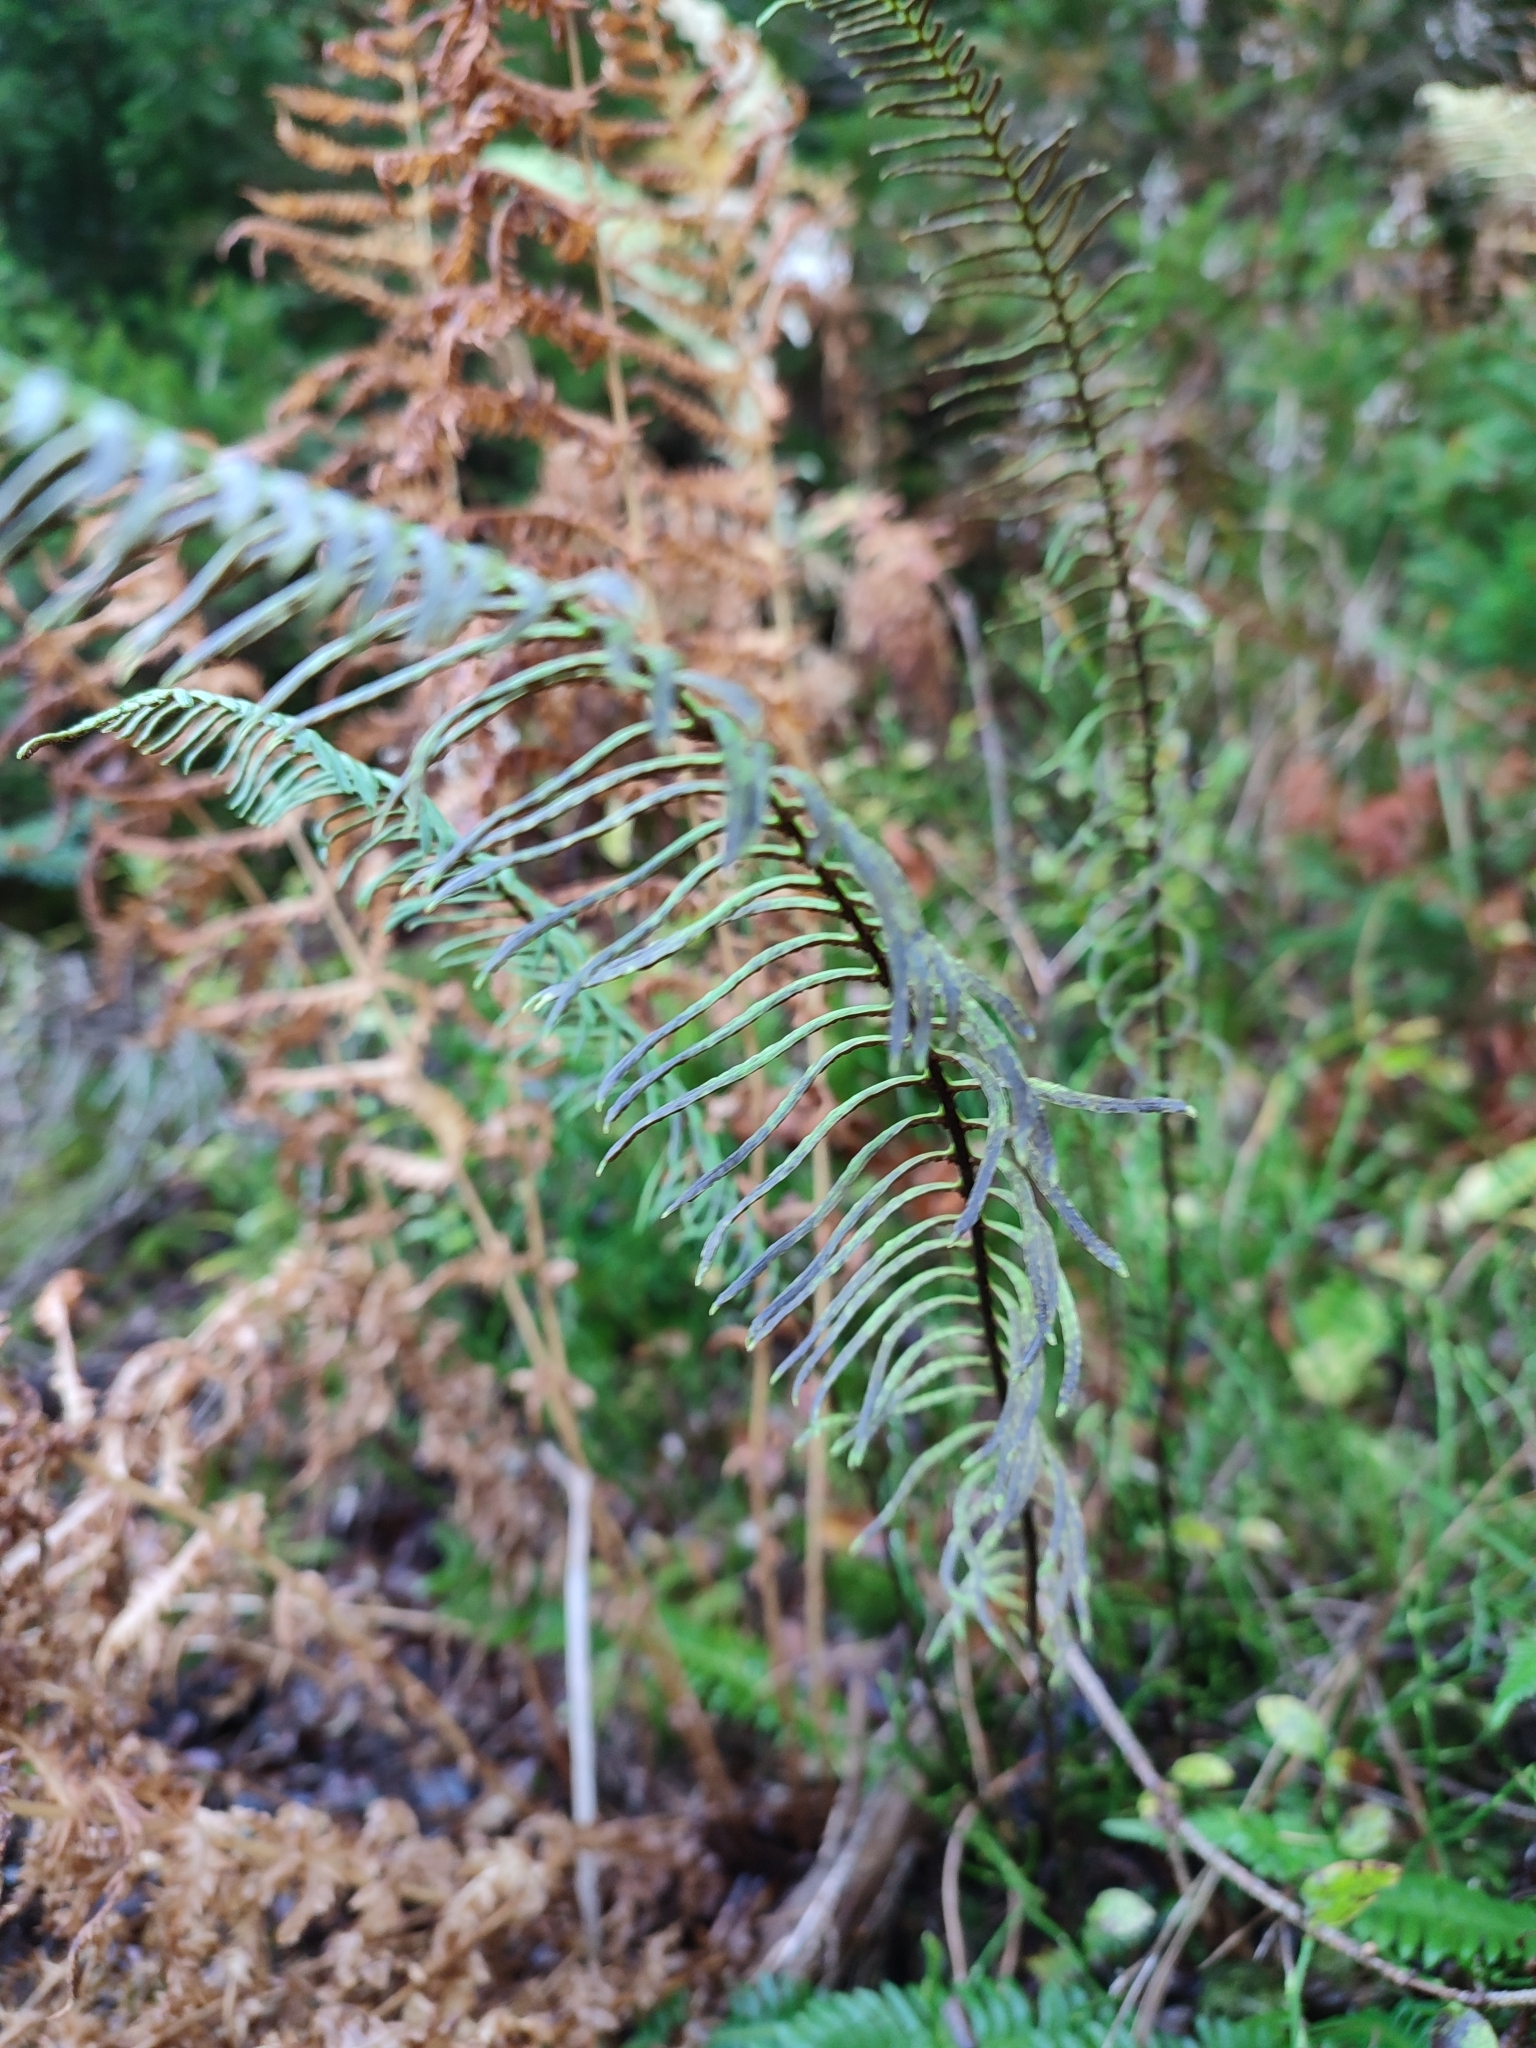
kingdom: Plantae
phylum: Tracheophyta
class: Polypodiopsida
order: Polypodiales
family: Blechnaceae
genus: Struthiopteris
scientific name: Struthiopteris spicant
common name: Deer fern
